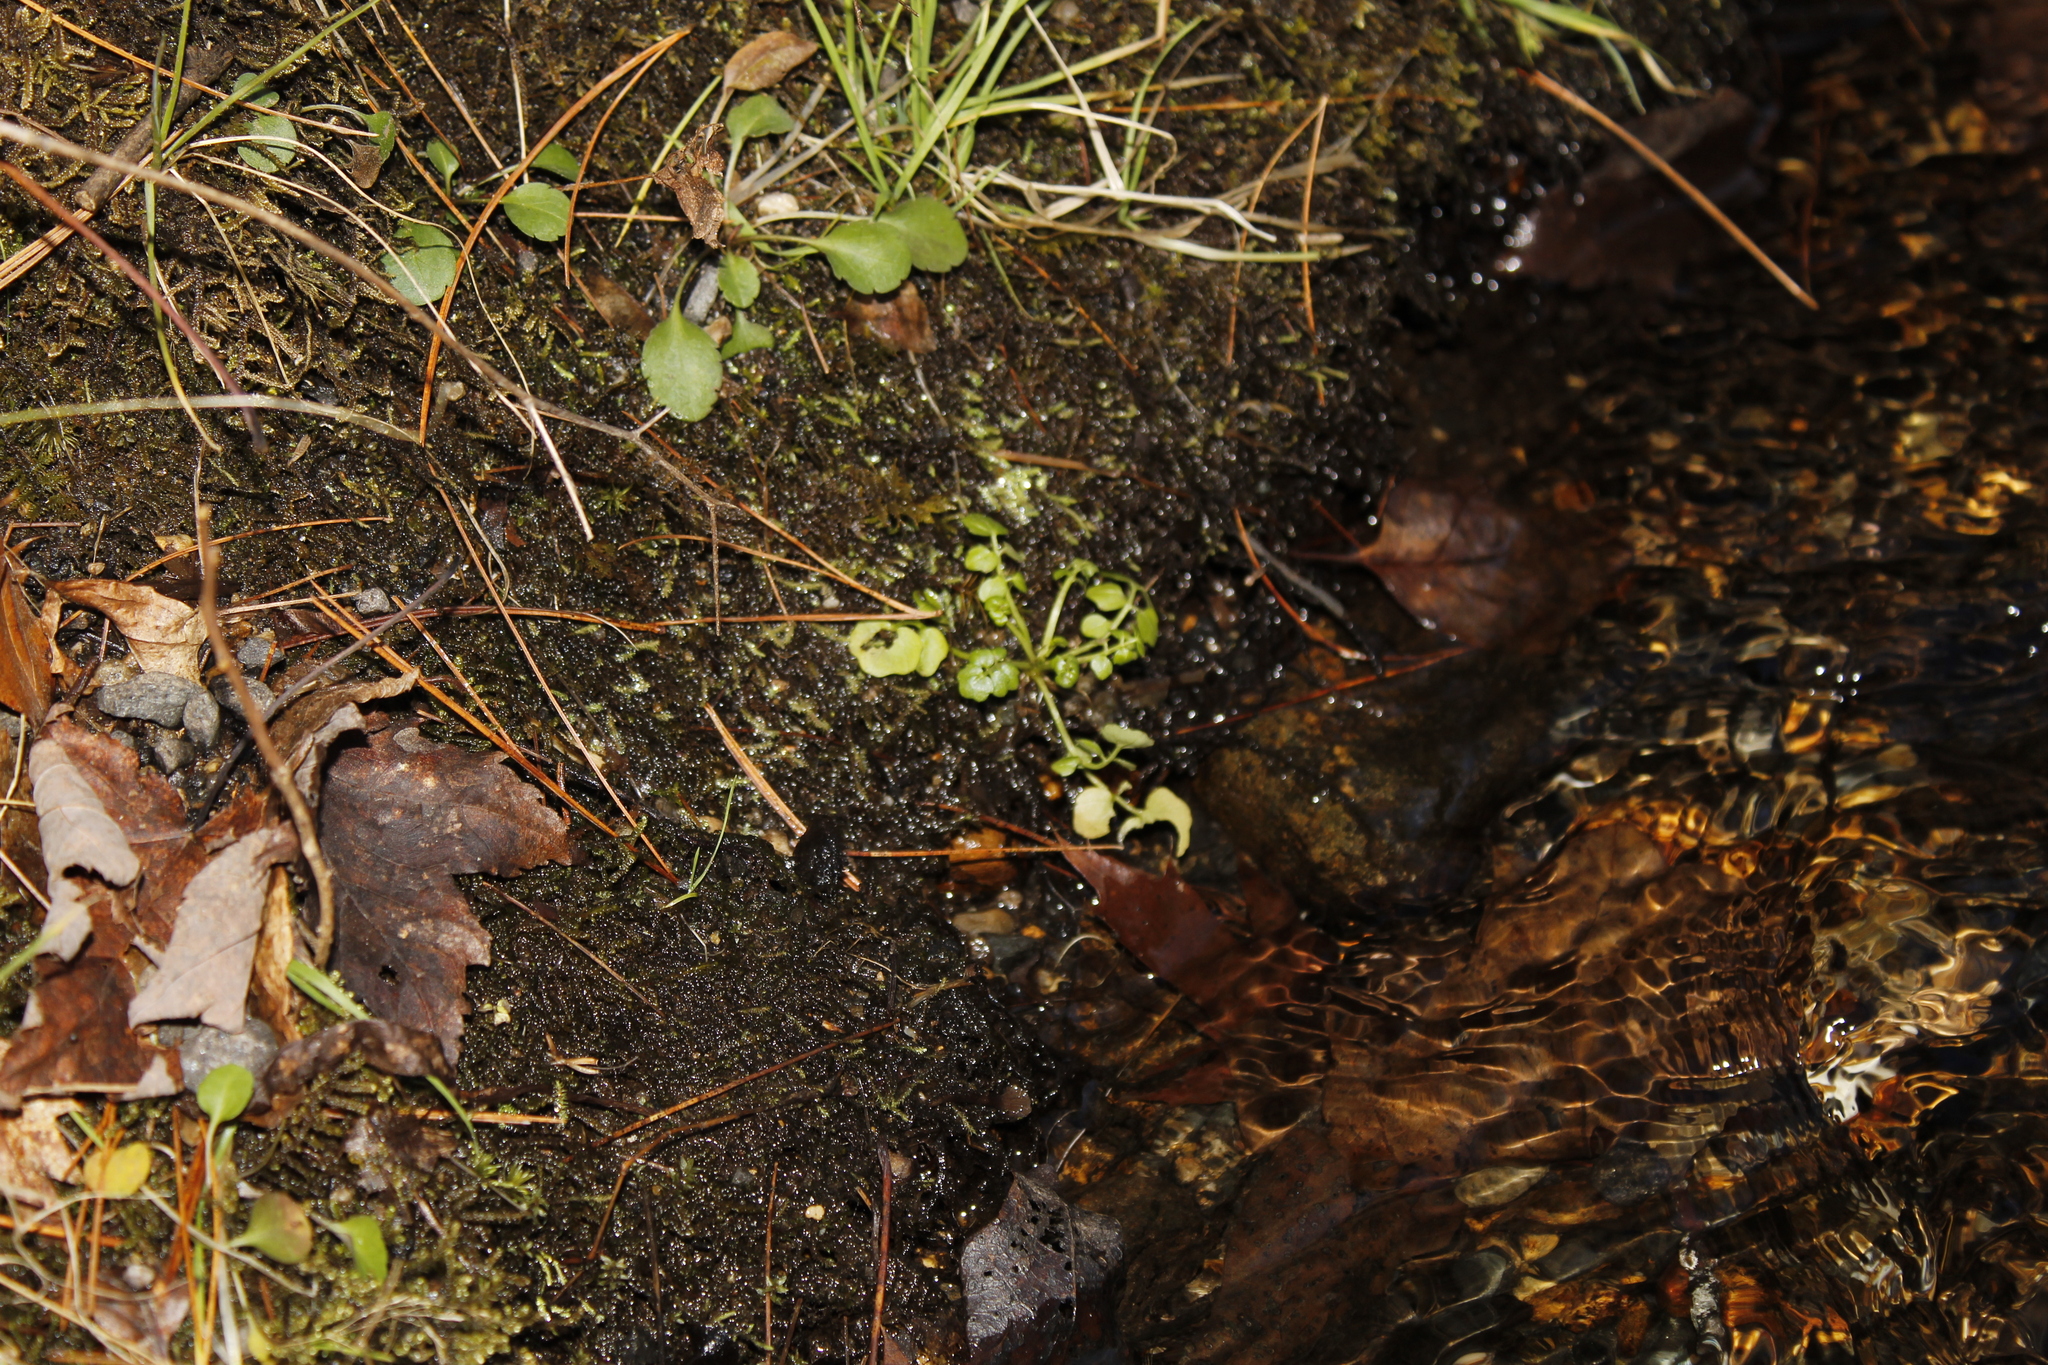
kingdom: Plantae
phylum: Tracheophyta
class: Magnoliopsida
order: Brassicales
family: Brassicaceae
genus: Cardamine
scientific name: Cardamine pensylvanica
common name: Pennsylvania bittercress
